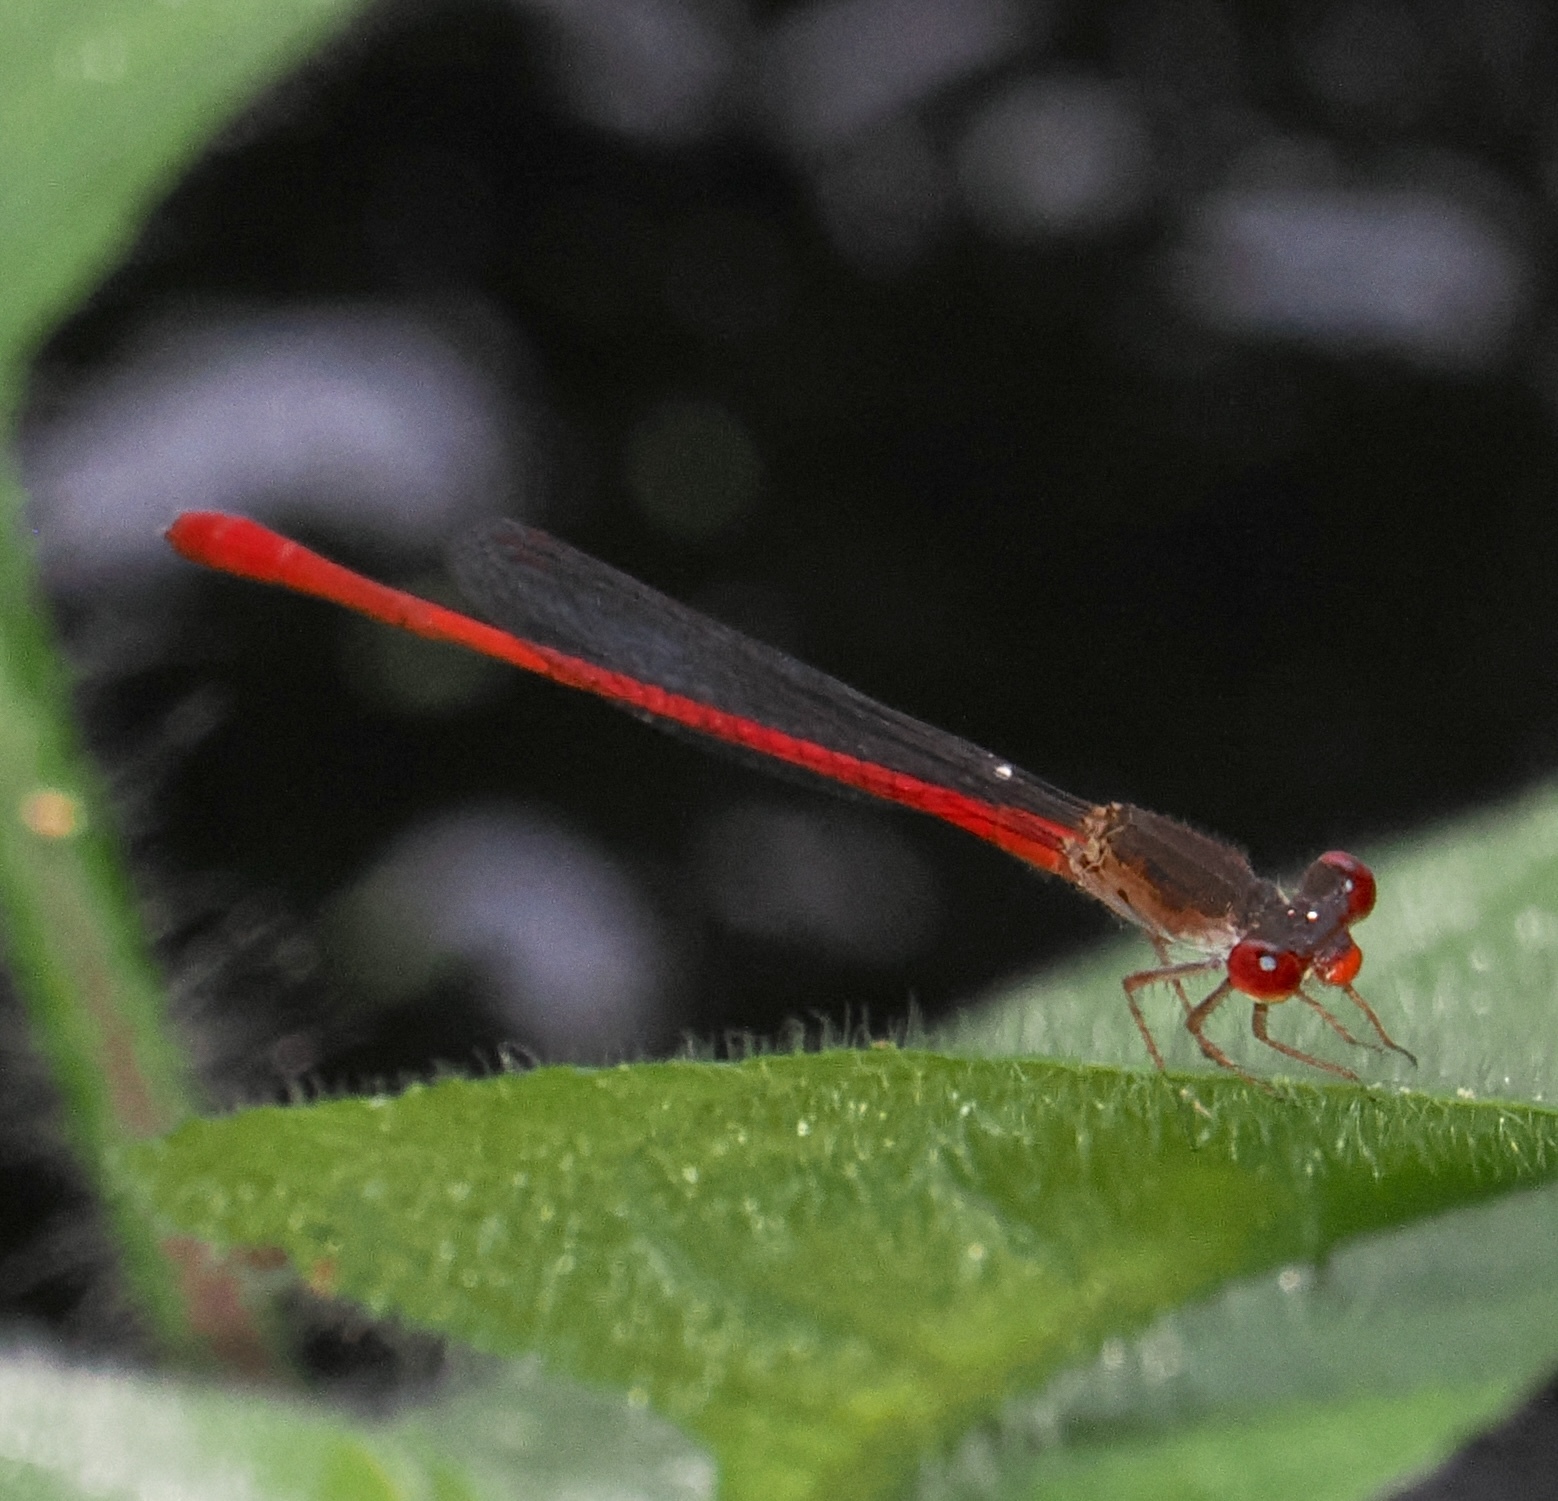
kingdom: Animalia
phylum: Arthropoda
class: Insecta
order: Odonata
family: Coenagrionidae
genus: Telebasis
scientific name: Telebasis griffinii
